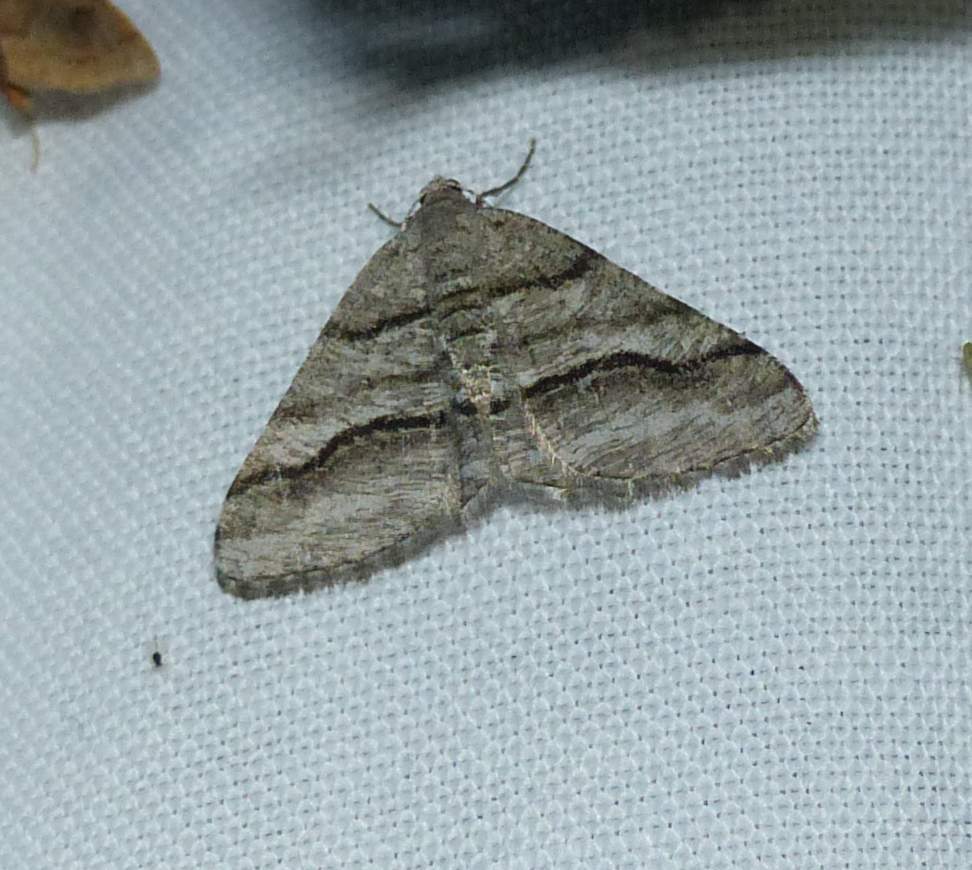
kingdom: Animalia
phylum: Arthropoda
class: Insecta
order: Lepidoptera
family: Geometridae
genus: Digrammia
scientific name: Digrammia continuata
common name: Curve-lined angle
